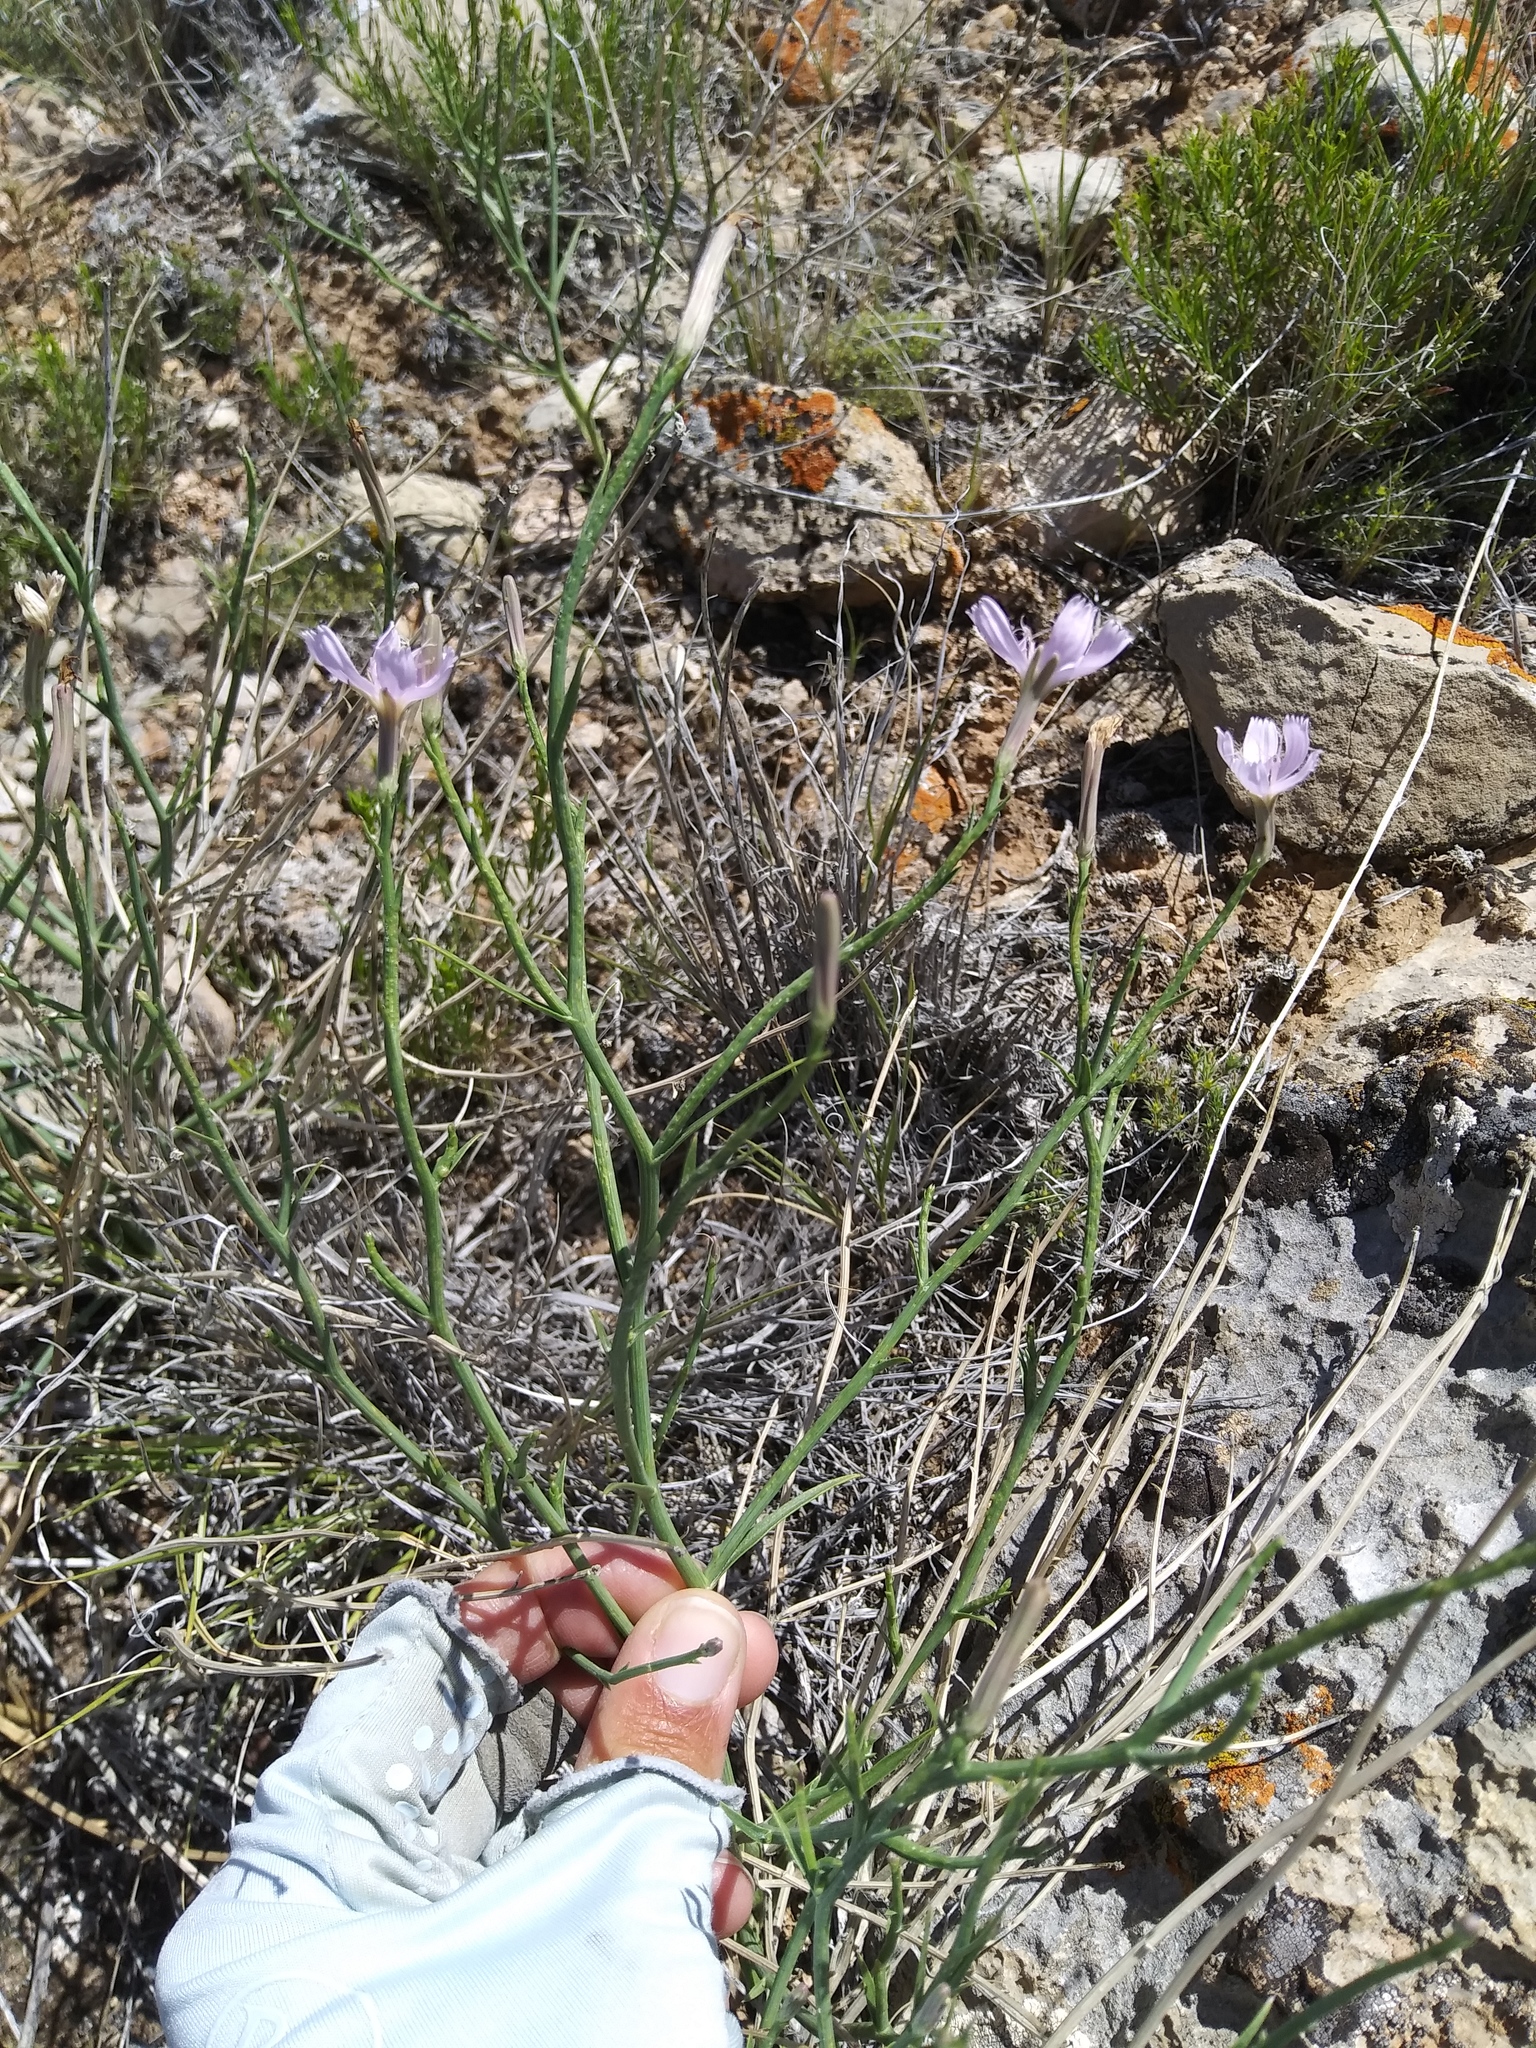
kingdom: Plantae
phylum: Tracheophyta
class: Magnoliopsida
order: Asterales
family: Asteraceae
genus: Lygodesmia
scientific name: Lygodesmia juncea
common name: Common skeletonweed
